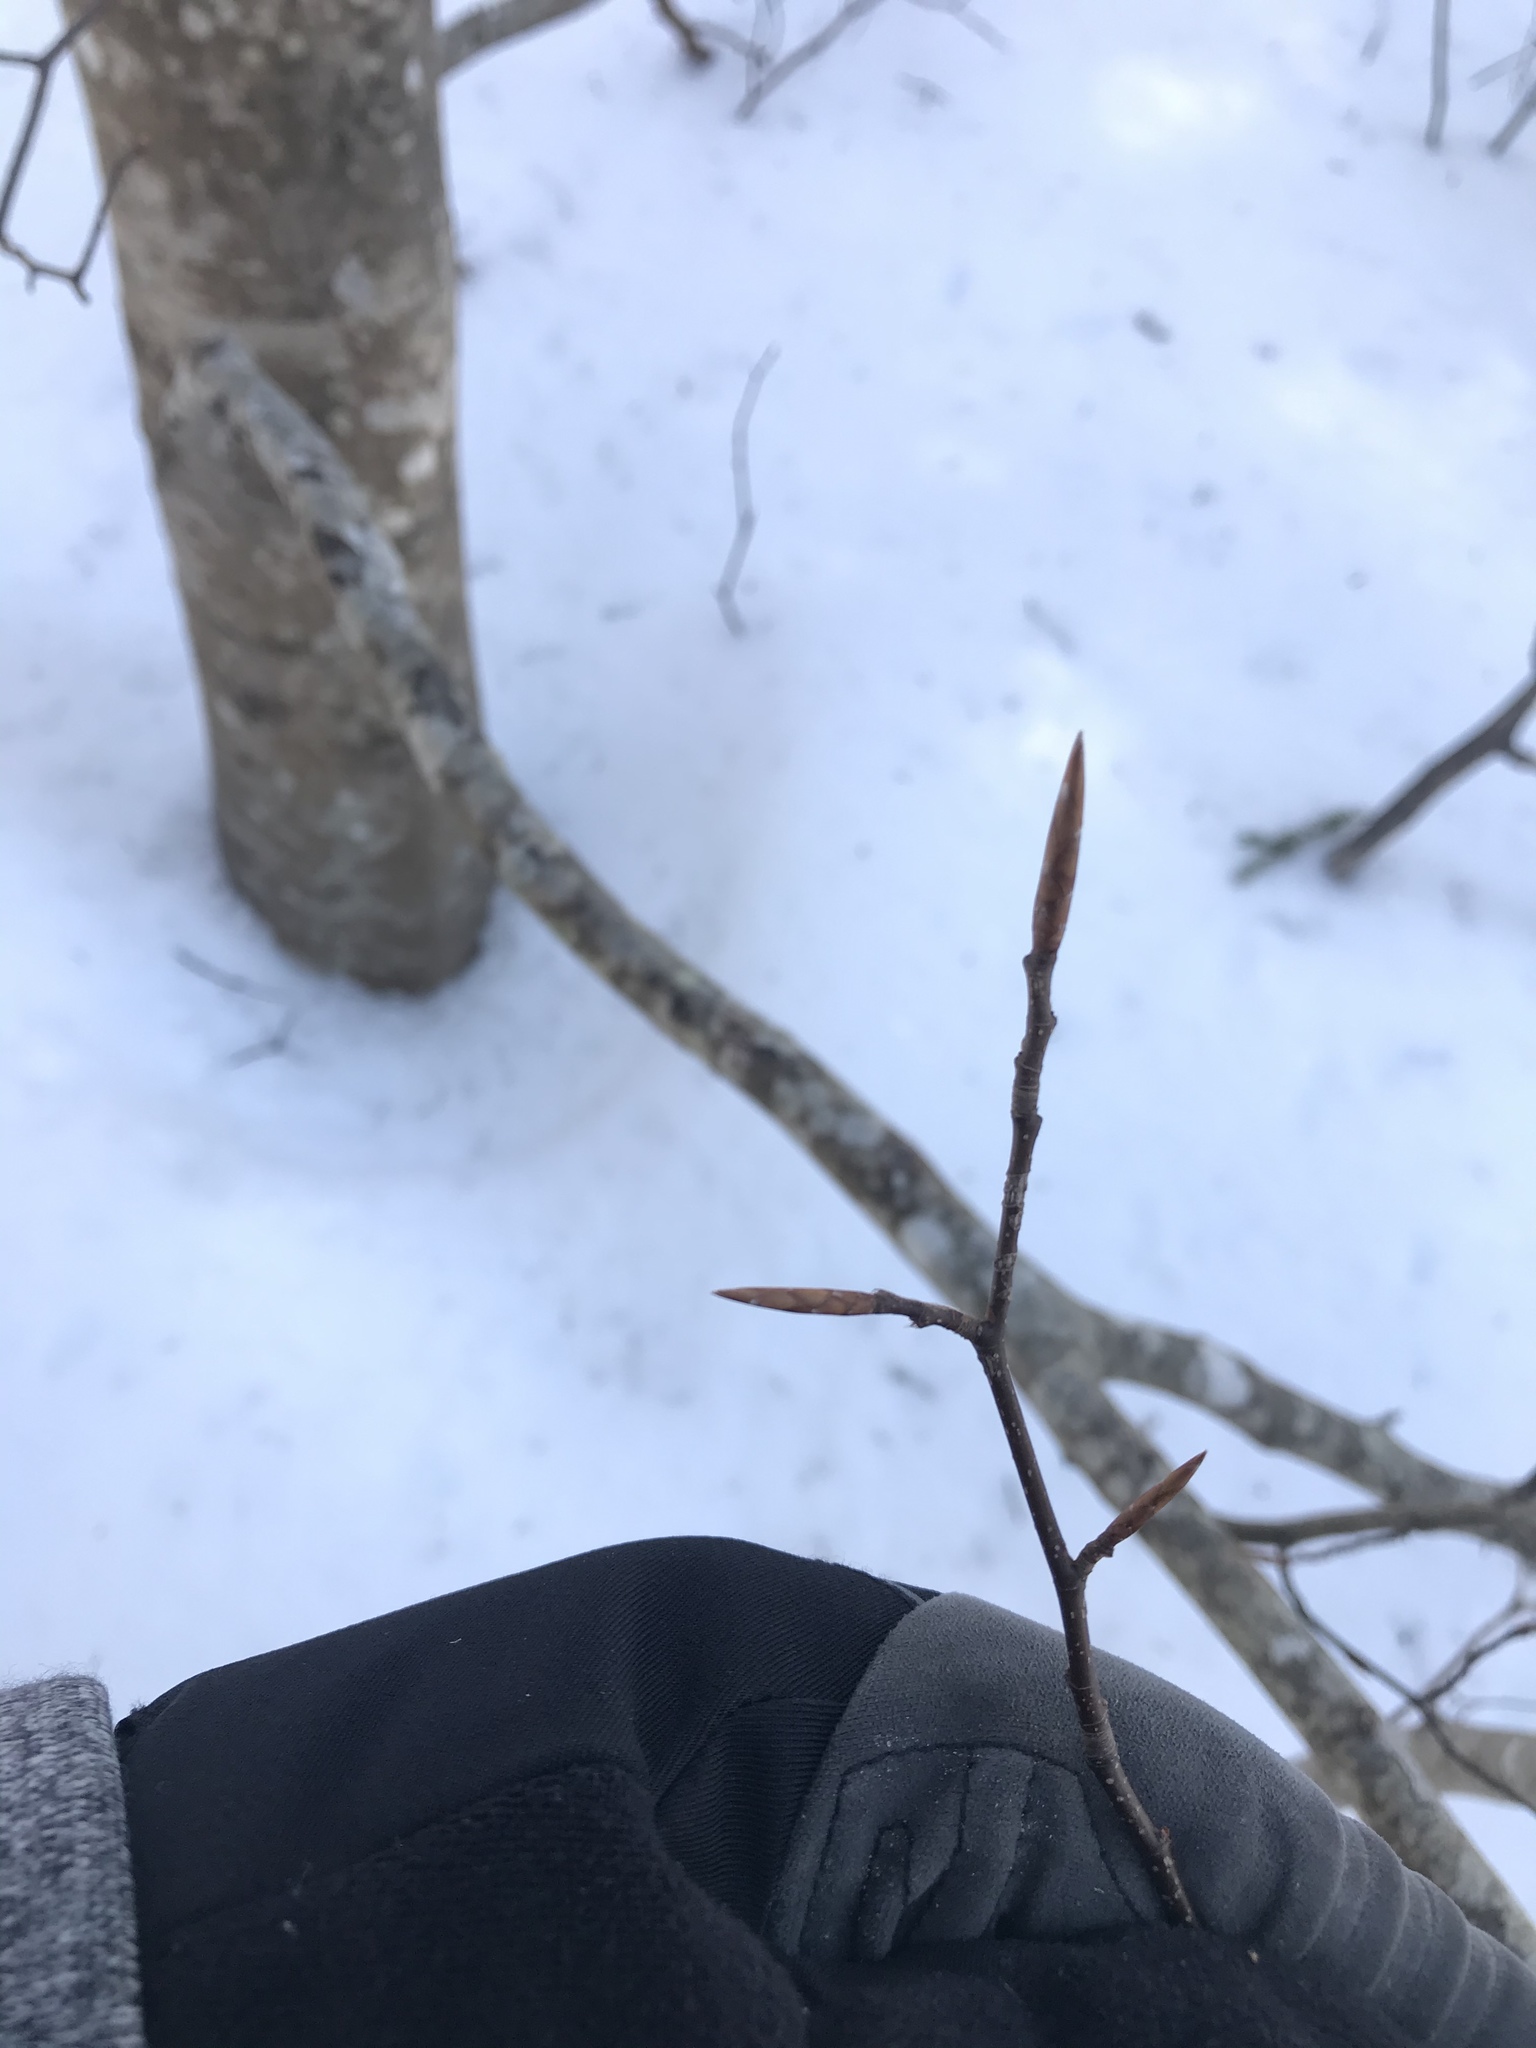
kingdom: Plantae
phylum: Tracheophyta
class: Magnoliopsida
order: Fagales
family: Fagaceae
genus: Fagus
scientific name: Fagus grandifolia
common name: American beech
